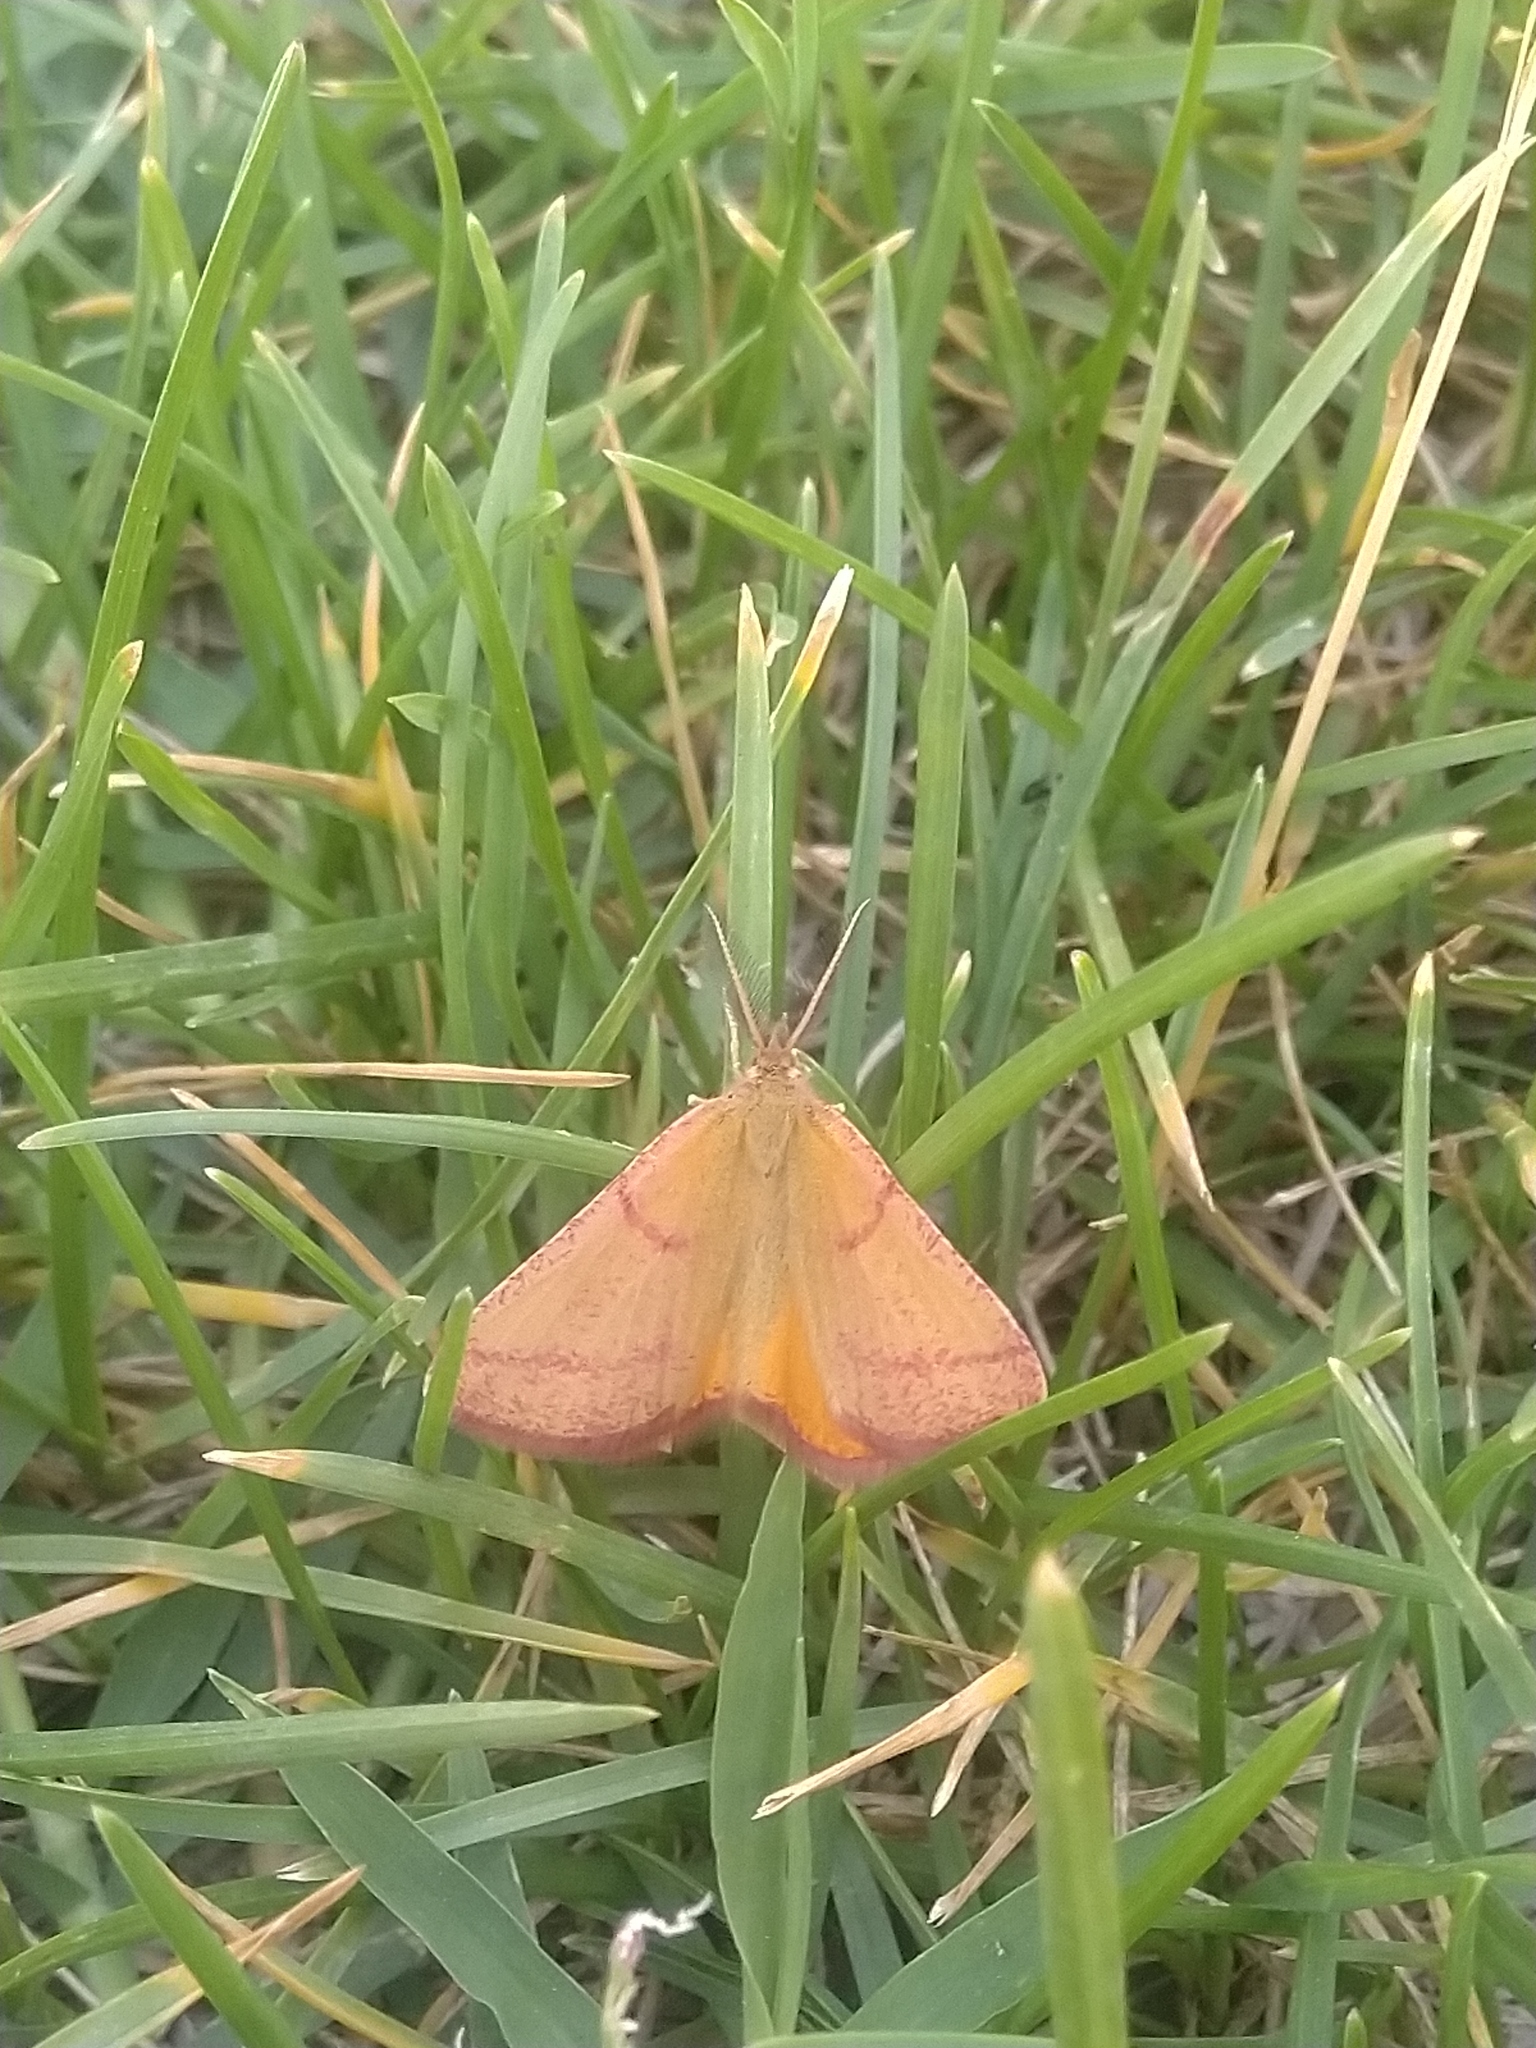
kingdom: Animalia
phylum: Arthropoda
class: Insecta
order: Lepidoptera
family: Geometridae
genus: Lythria
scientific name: Lythria purpuraria
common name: Purple-barred yellow
